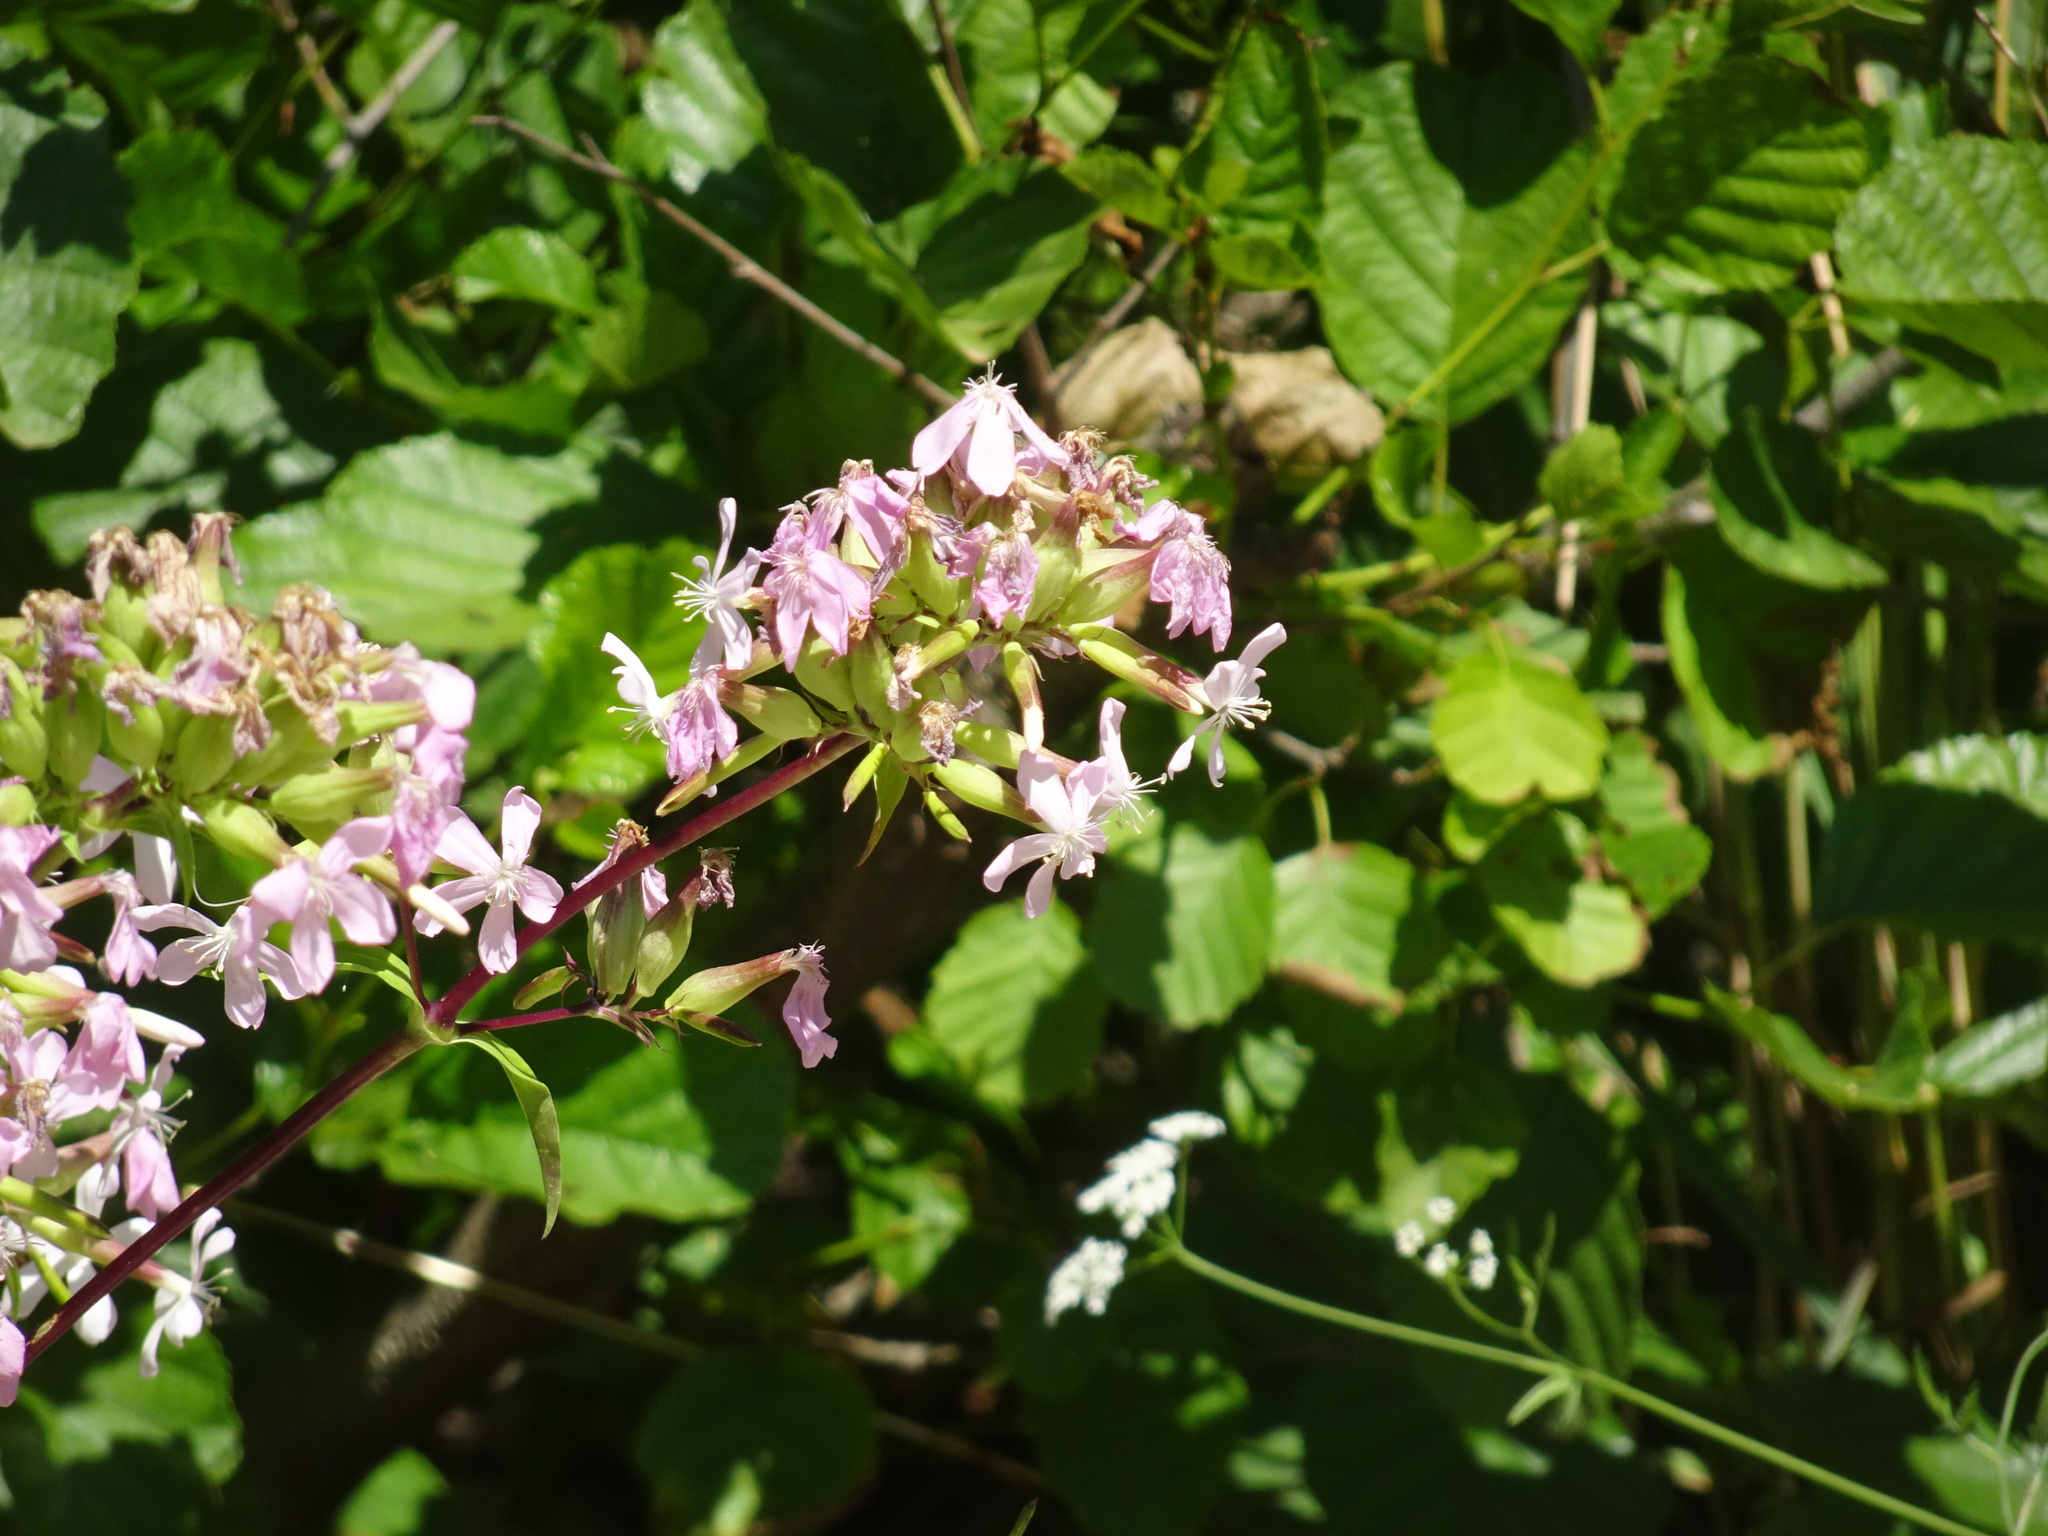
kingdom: Plantae
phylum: Tracheophyta
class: Magnoliopsida
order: Caryophyllales
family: Caryophyllaceae
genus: Saponaria
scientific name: Saponaria officinalis
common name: Soapwort
